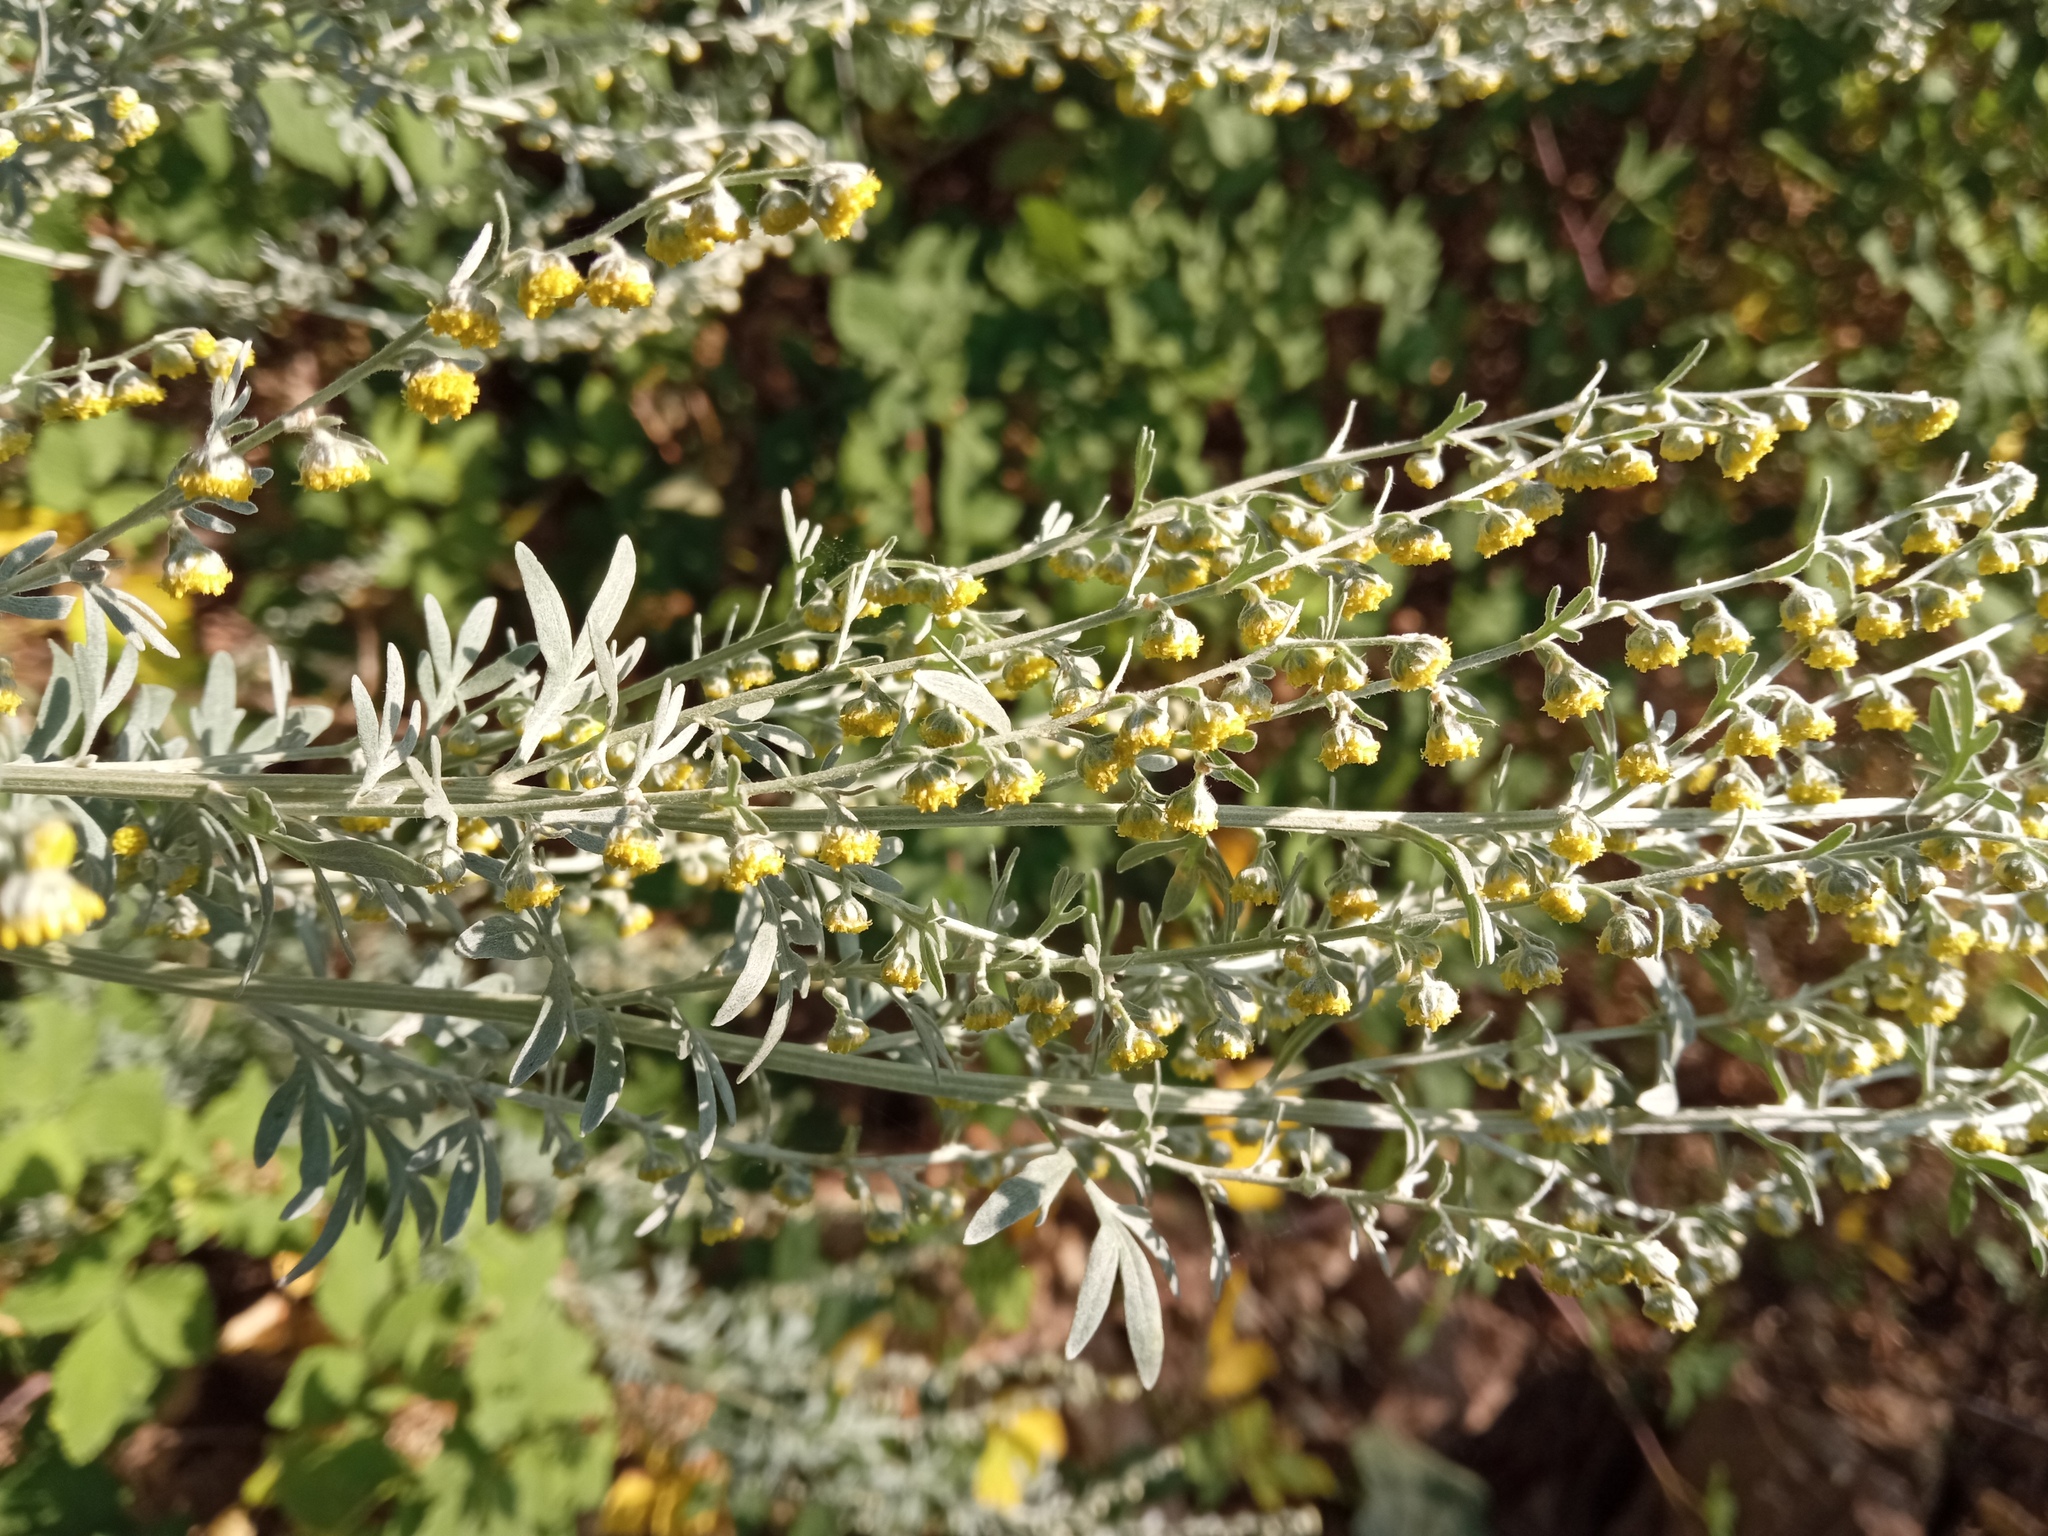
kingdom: Plantae
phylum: Tracheophyta
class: Magnoliopsida
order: Asterales
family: Asteraceae
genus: Artemisia
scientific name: Artemisia absinthium
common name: Wormwood
